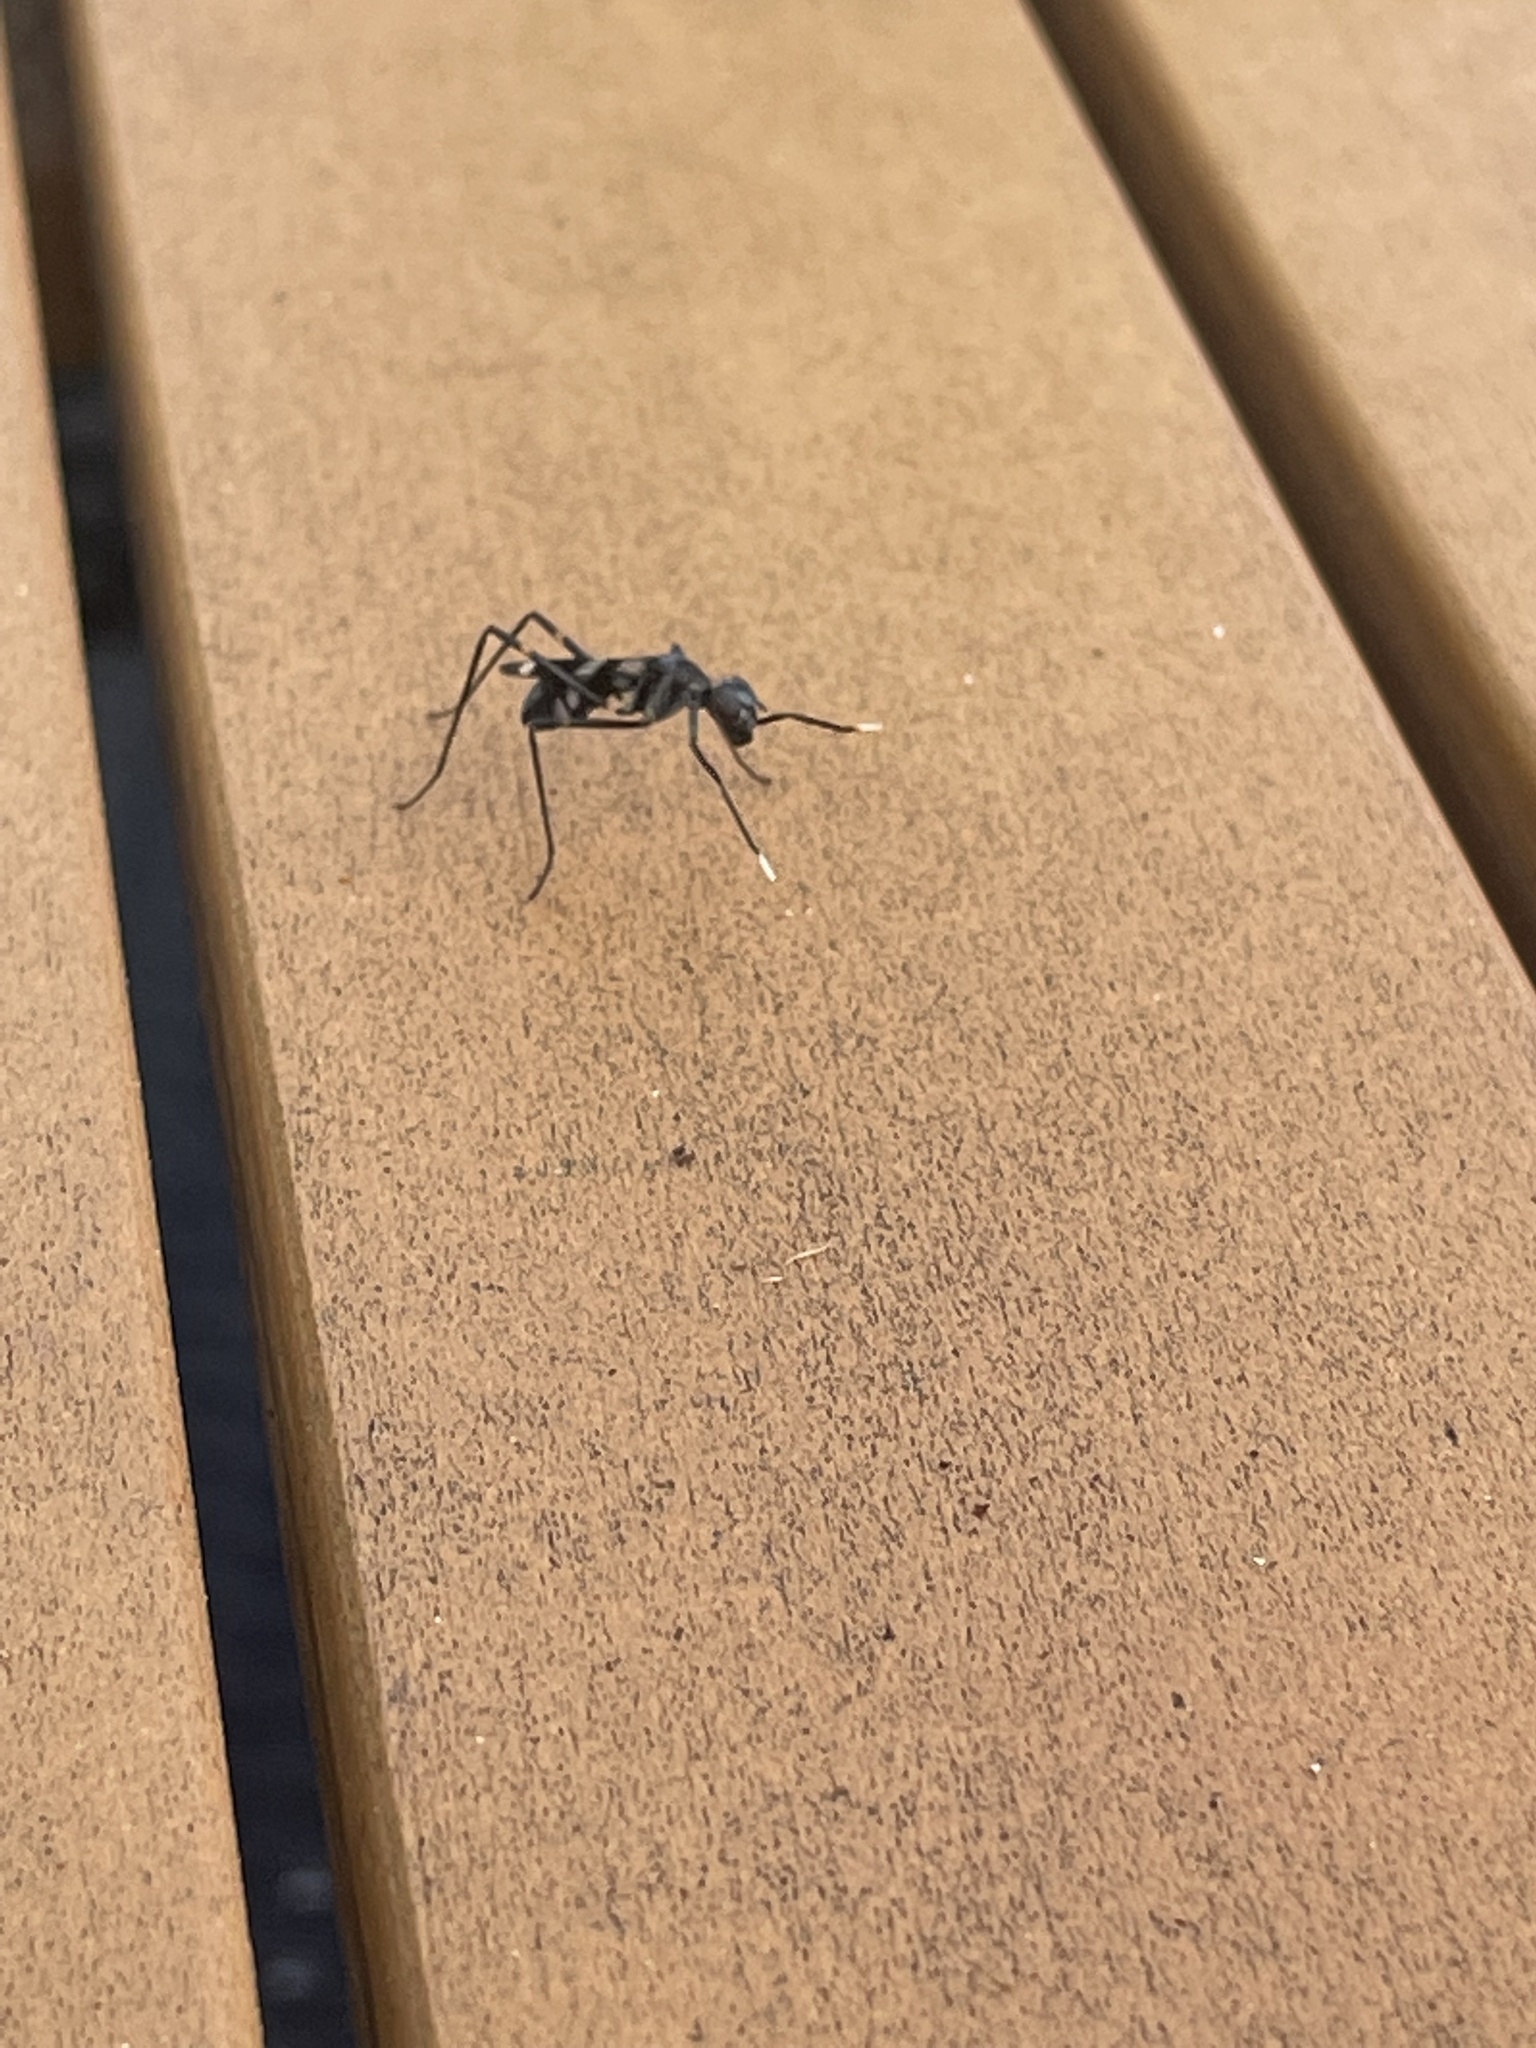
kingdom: Animalia
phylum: Arthropoda
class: Insecta
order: Diptera
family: Micropezidae
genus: Mimegralla
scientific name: Mimegralla australica
